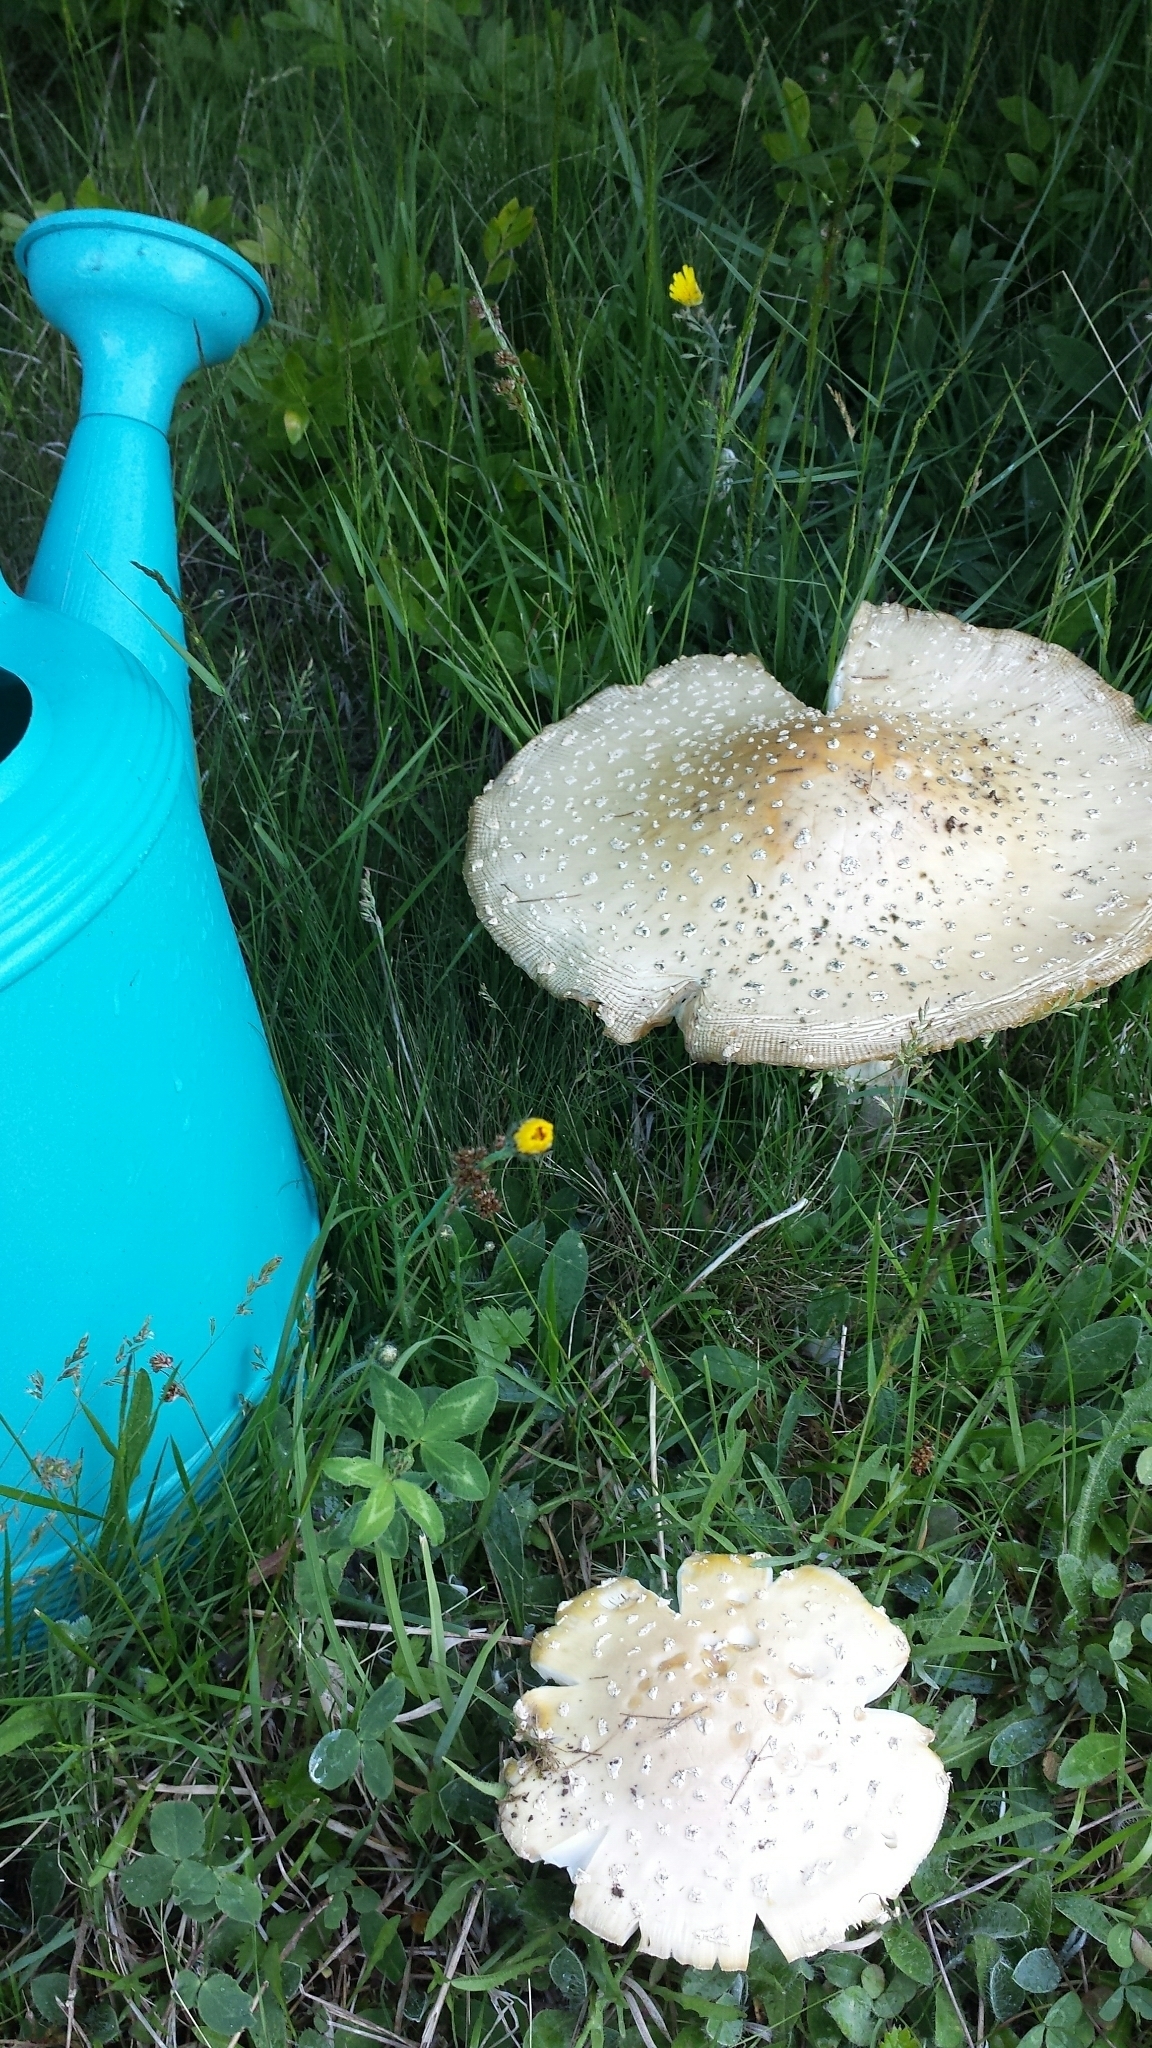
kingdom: Fungi
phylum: Basidiomycota
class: Agaricomycetes
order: Agaricales
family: Amanitaceae
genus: Amanita
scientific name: Amanita muscaria
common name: Fly agaric
